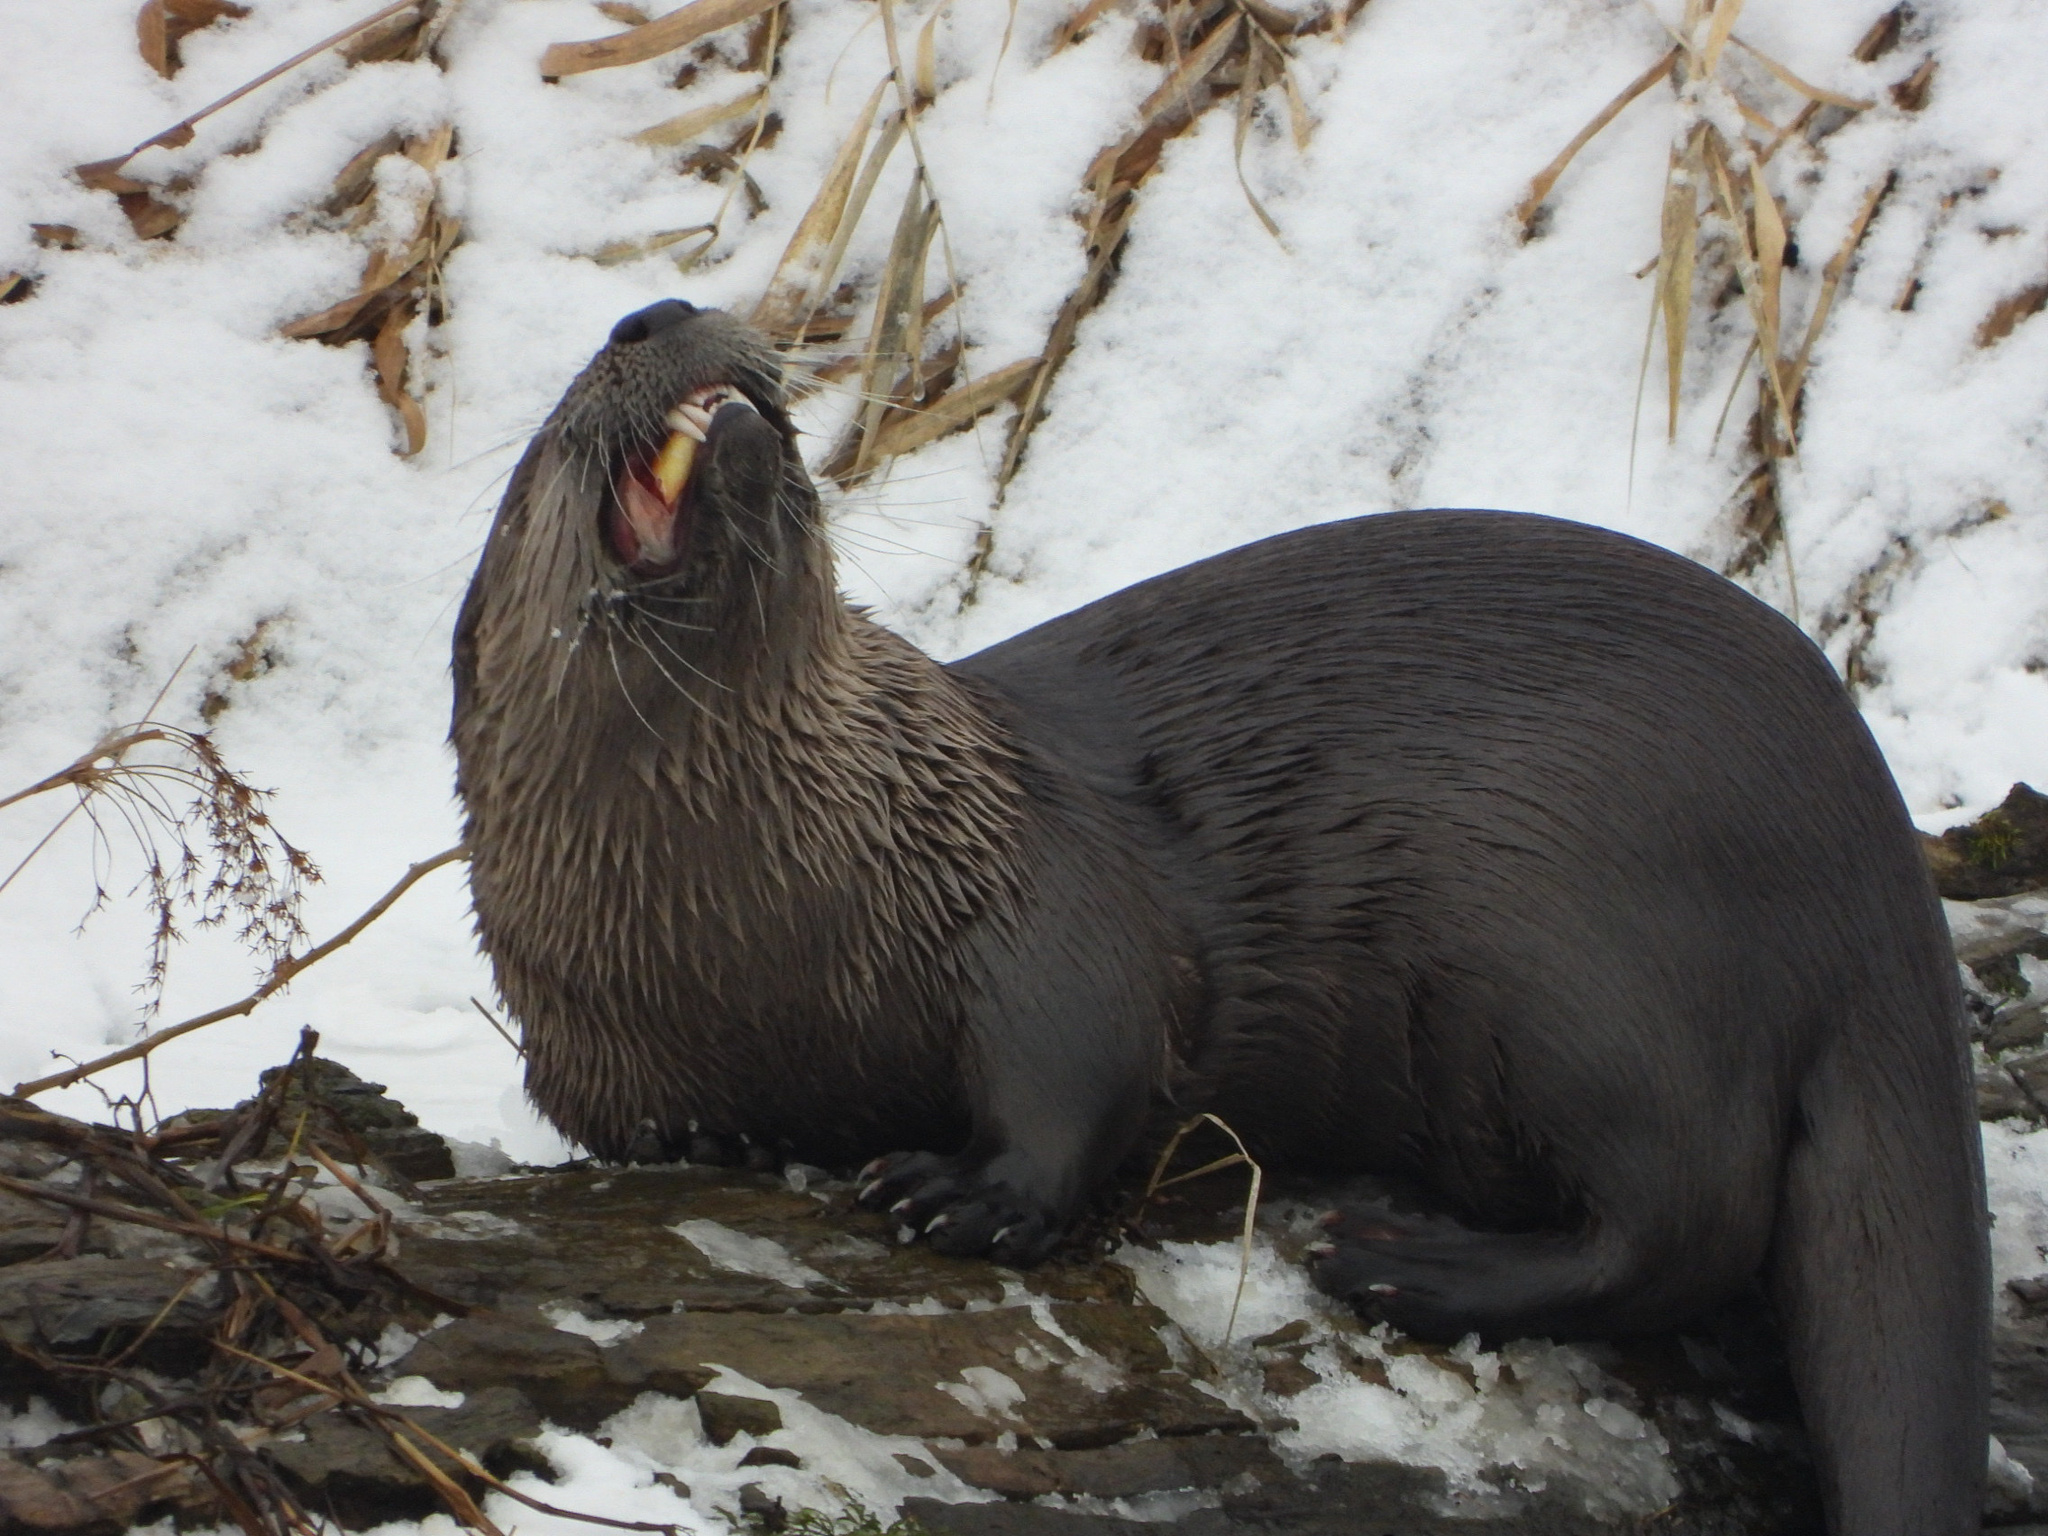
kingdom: Animalia
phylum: Chordata
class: Mammalia
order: Carnivora
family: Mustelidae
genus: Lontra
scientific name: Lontra canadensis
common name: North american river otter
